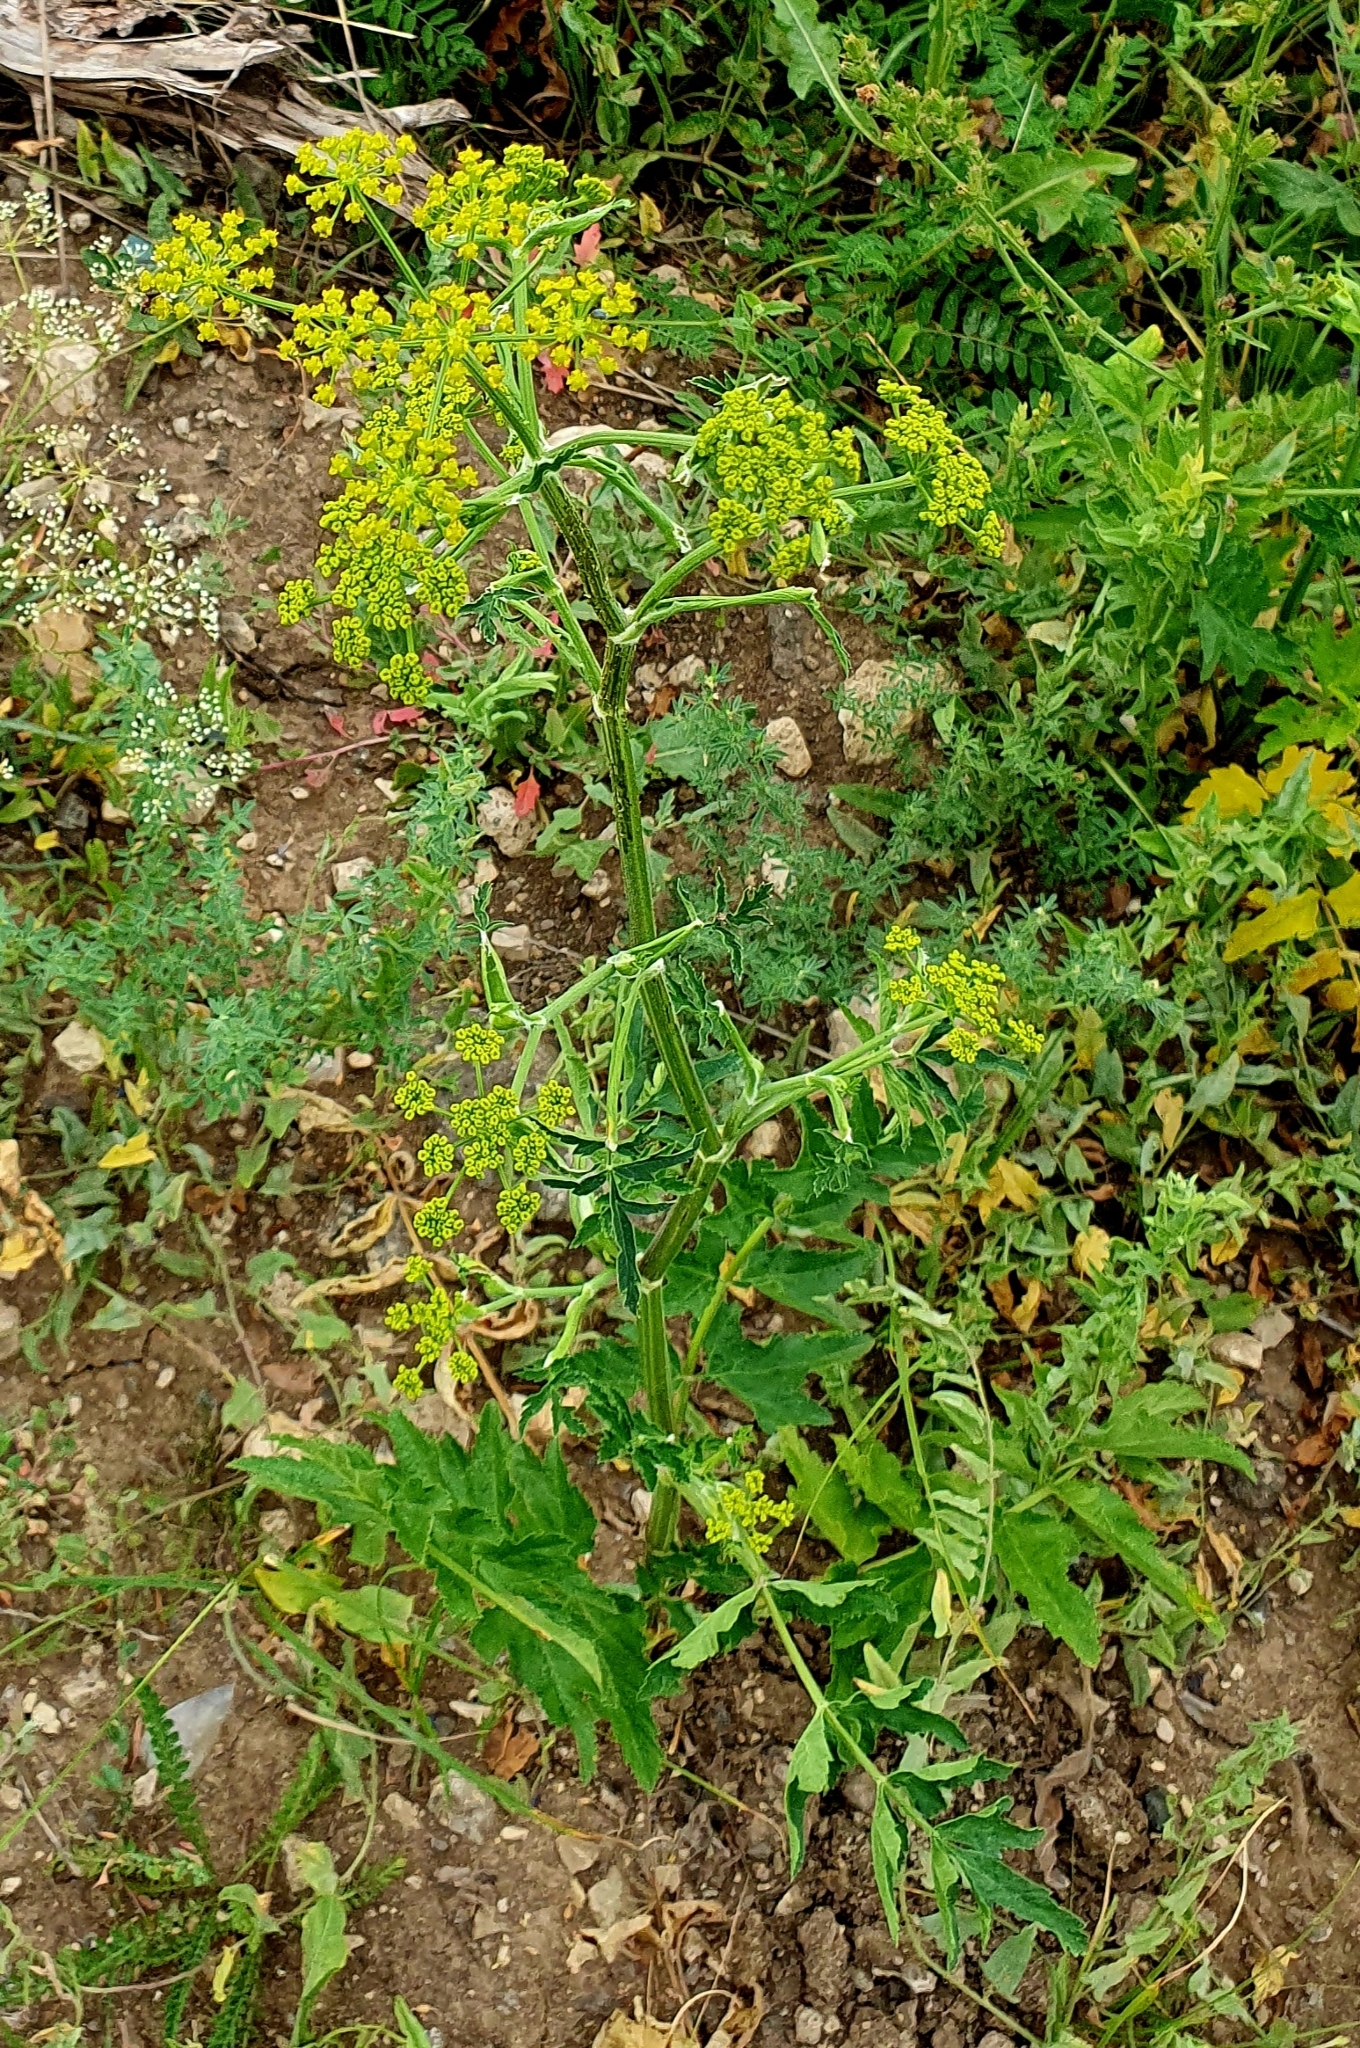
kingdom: Plantae
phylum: Tracheophyta
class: Magnoliopsida
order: Apiales
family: Apiaceae
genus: Pastinaca
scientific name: Pastinaca sativa
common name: Wild parsnip
